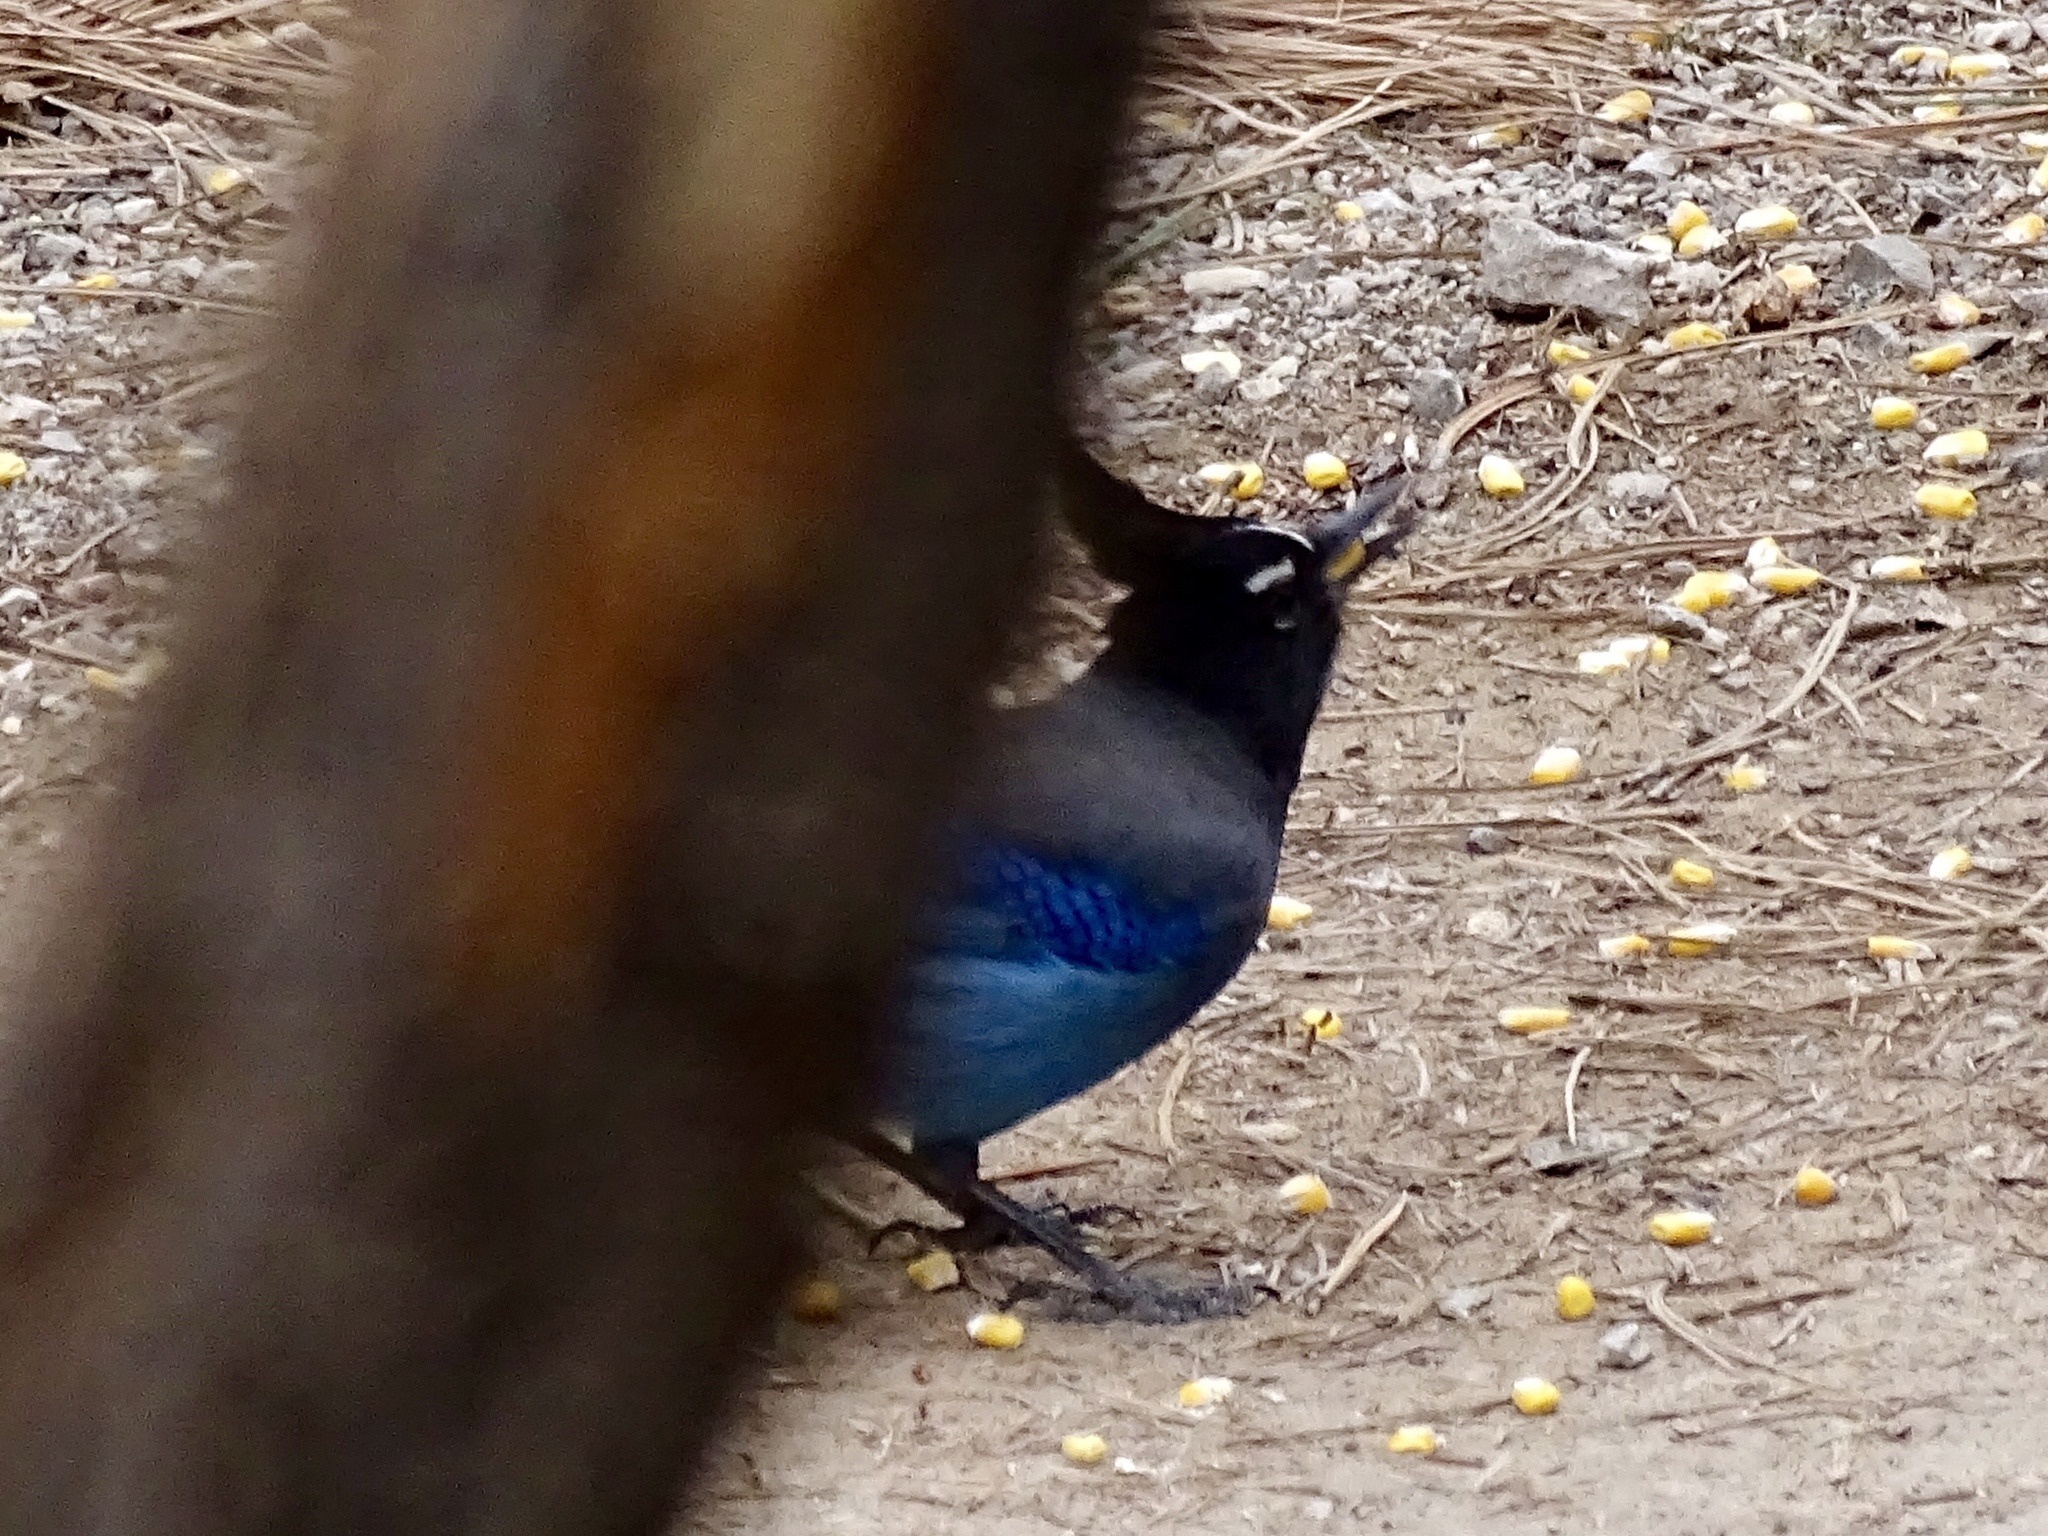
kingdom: Animalia
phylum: Chordata
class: Aves
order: Passeriformes
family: Corvidae
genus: Cyanocitta
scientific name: Cyanocitta stelleri
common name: Steller's jay
